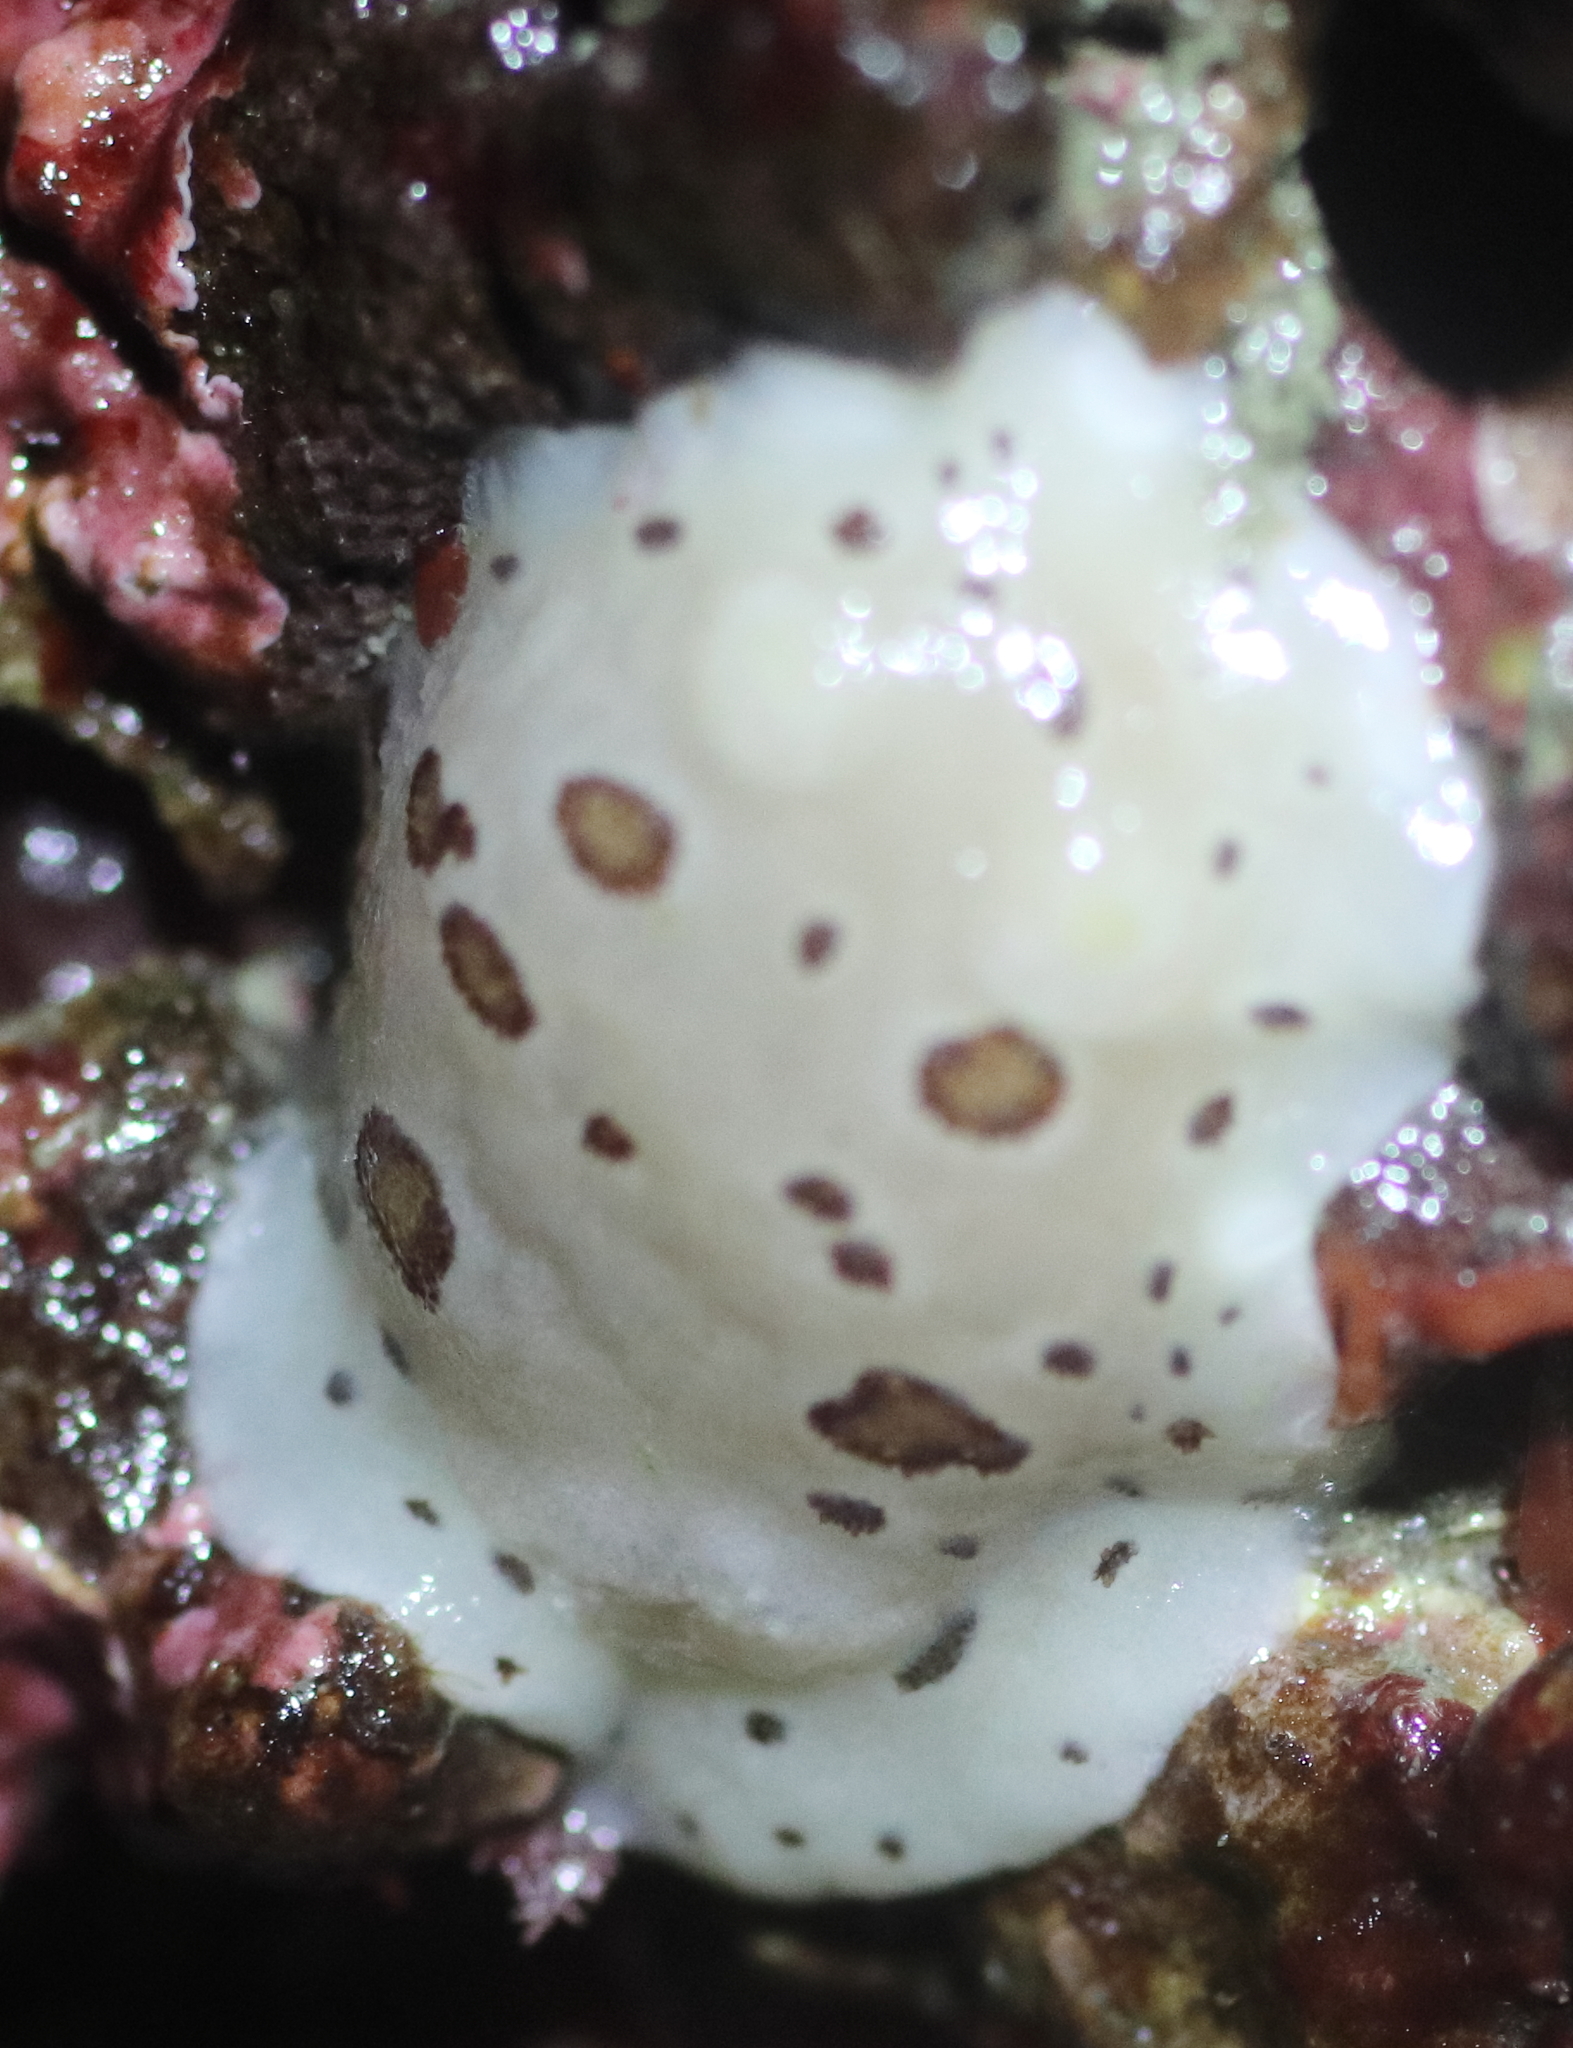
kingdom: Animalia
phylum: Mollusca
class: Gastropoda
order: Nudibranchia
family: Discodorididae
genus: Diaulula
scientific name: Diaulula odonoghuei
